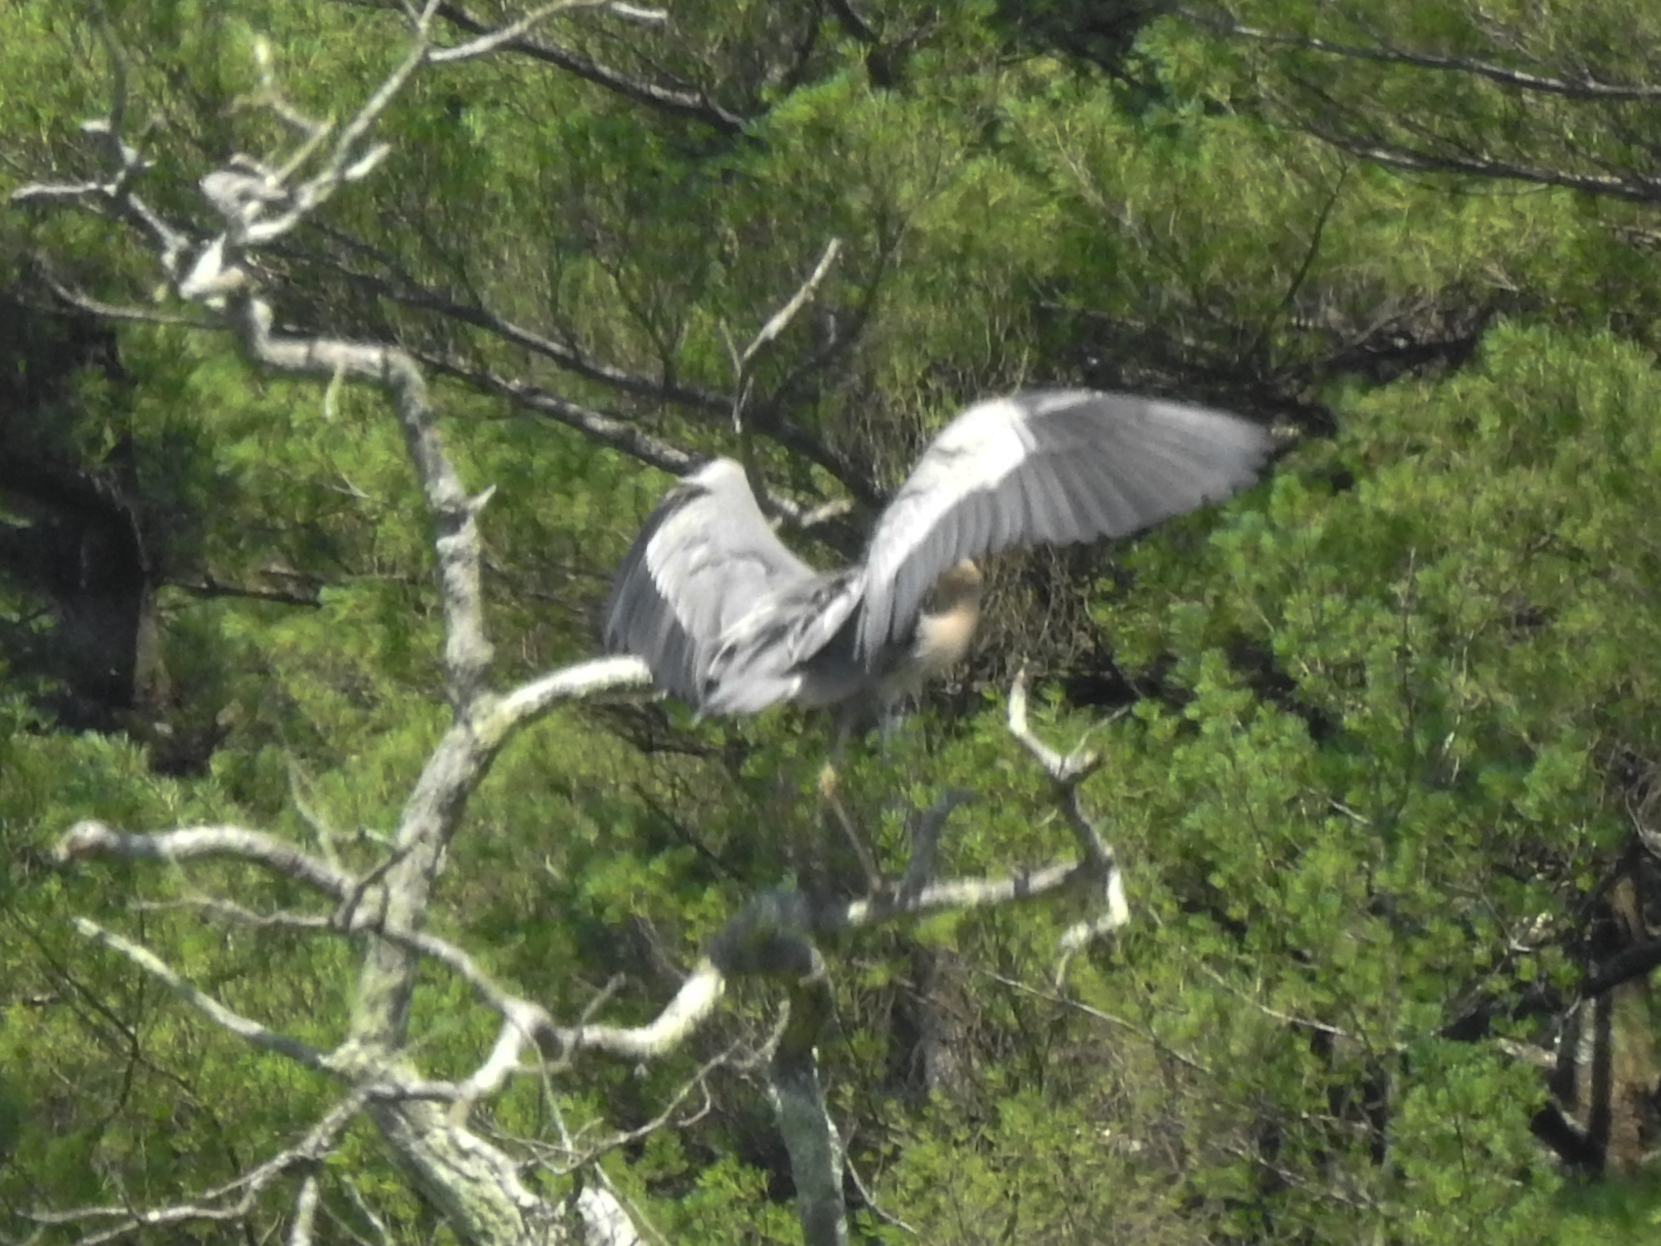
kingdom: Animalia
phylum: Chordata
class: Aves
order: Pelecaniformes
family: Ardeidae
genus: Ardea
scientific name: Ardea herodias
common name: Great blue heron
